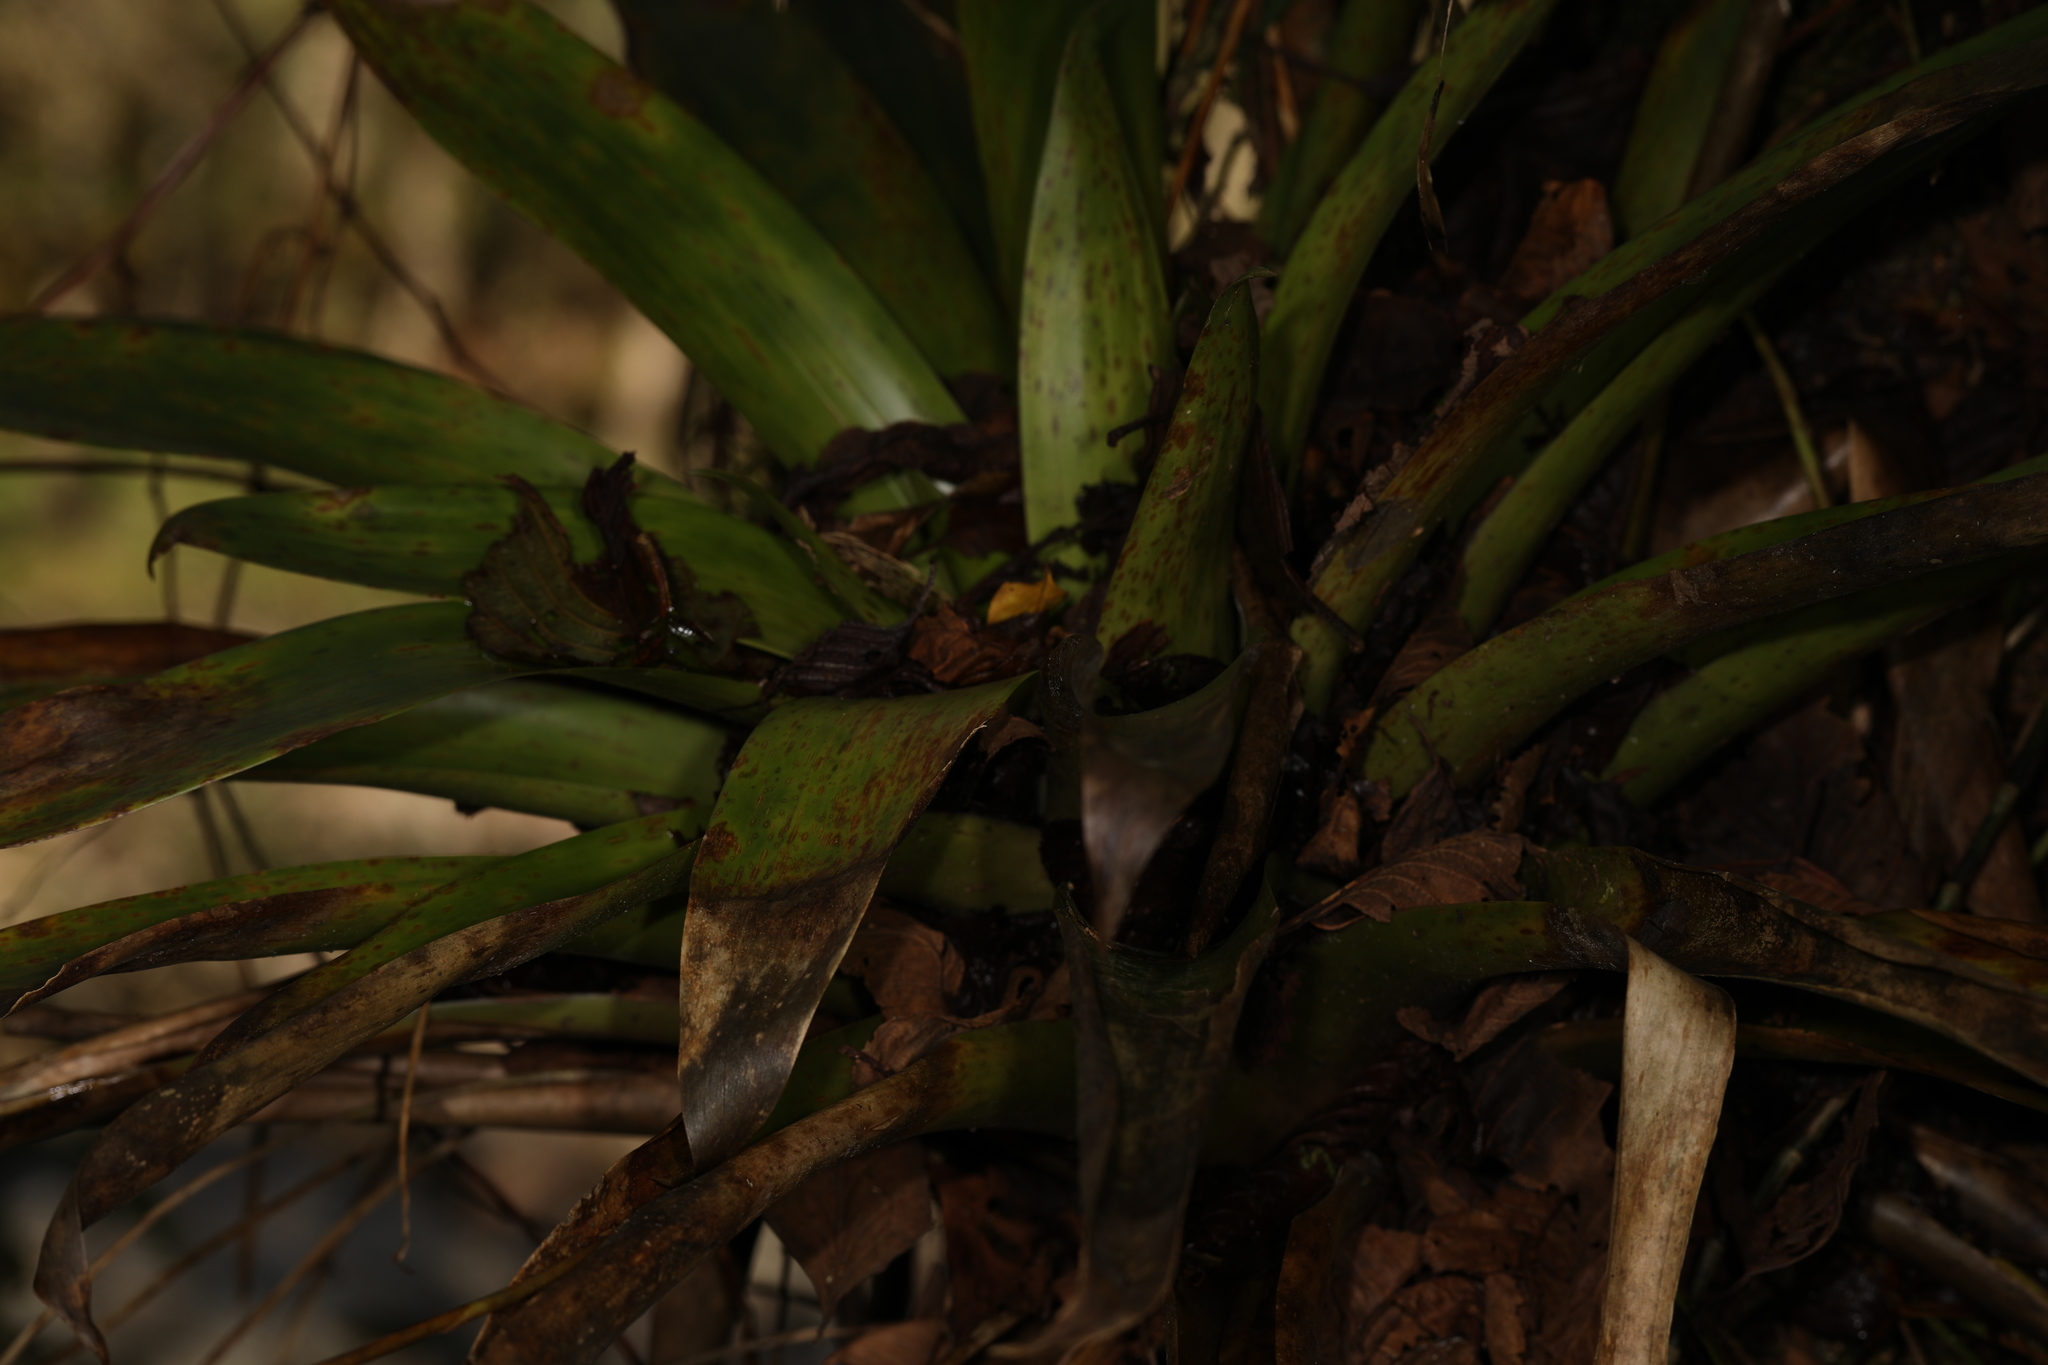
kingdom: Plantae
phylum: Tracheophyta
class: Liliopsida
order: Poales
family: Bromeliaceae
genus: Tillandsia
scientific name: Tillandsia complanata
